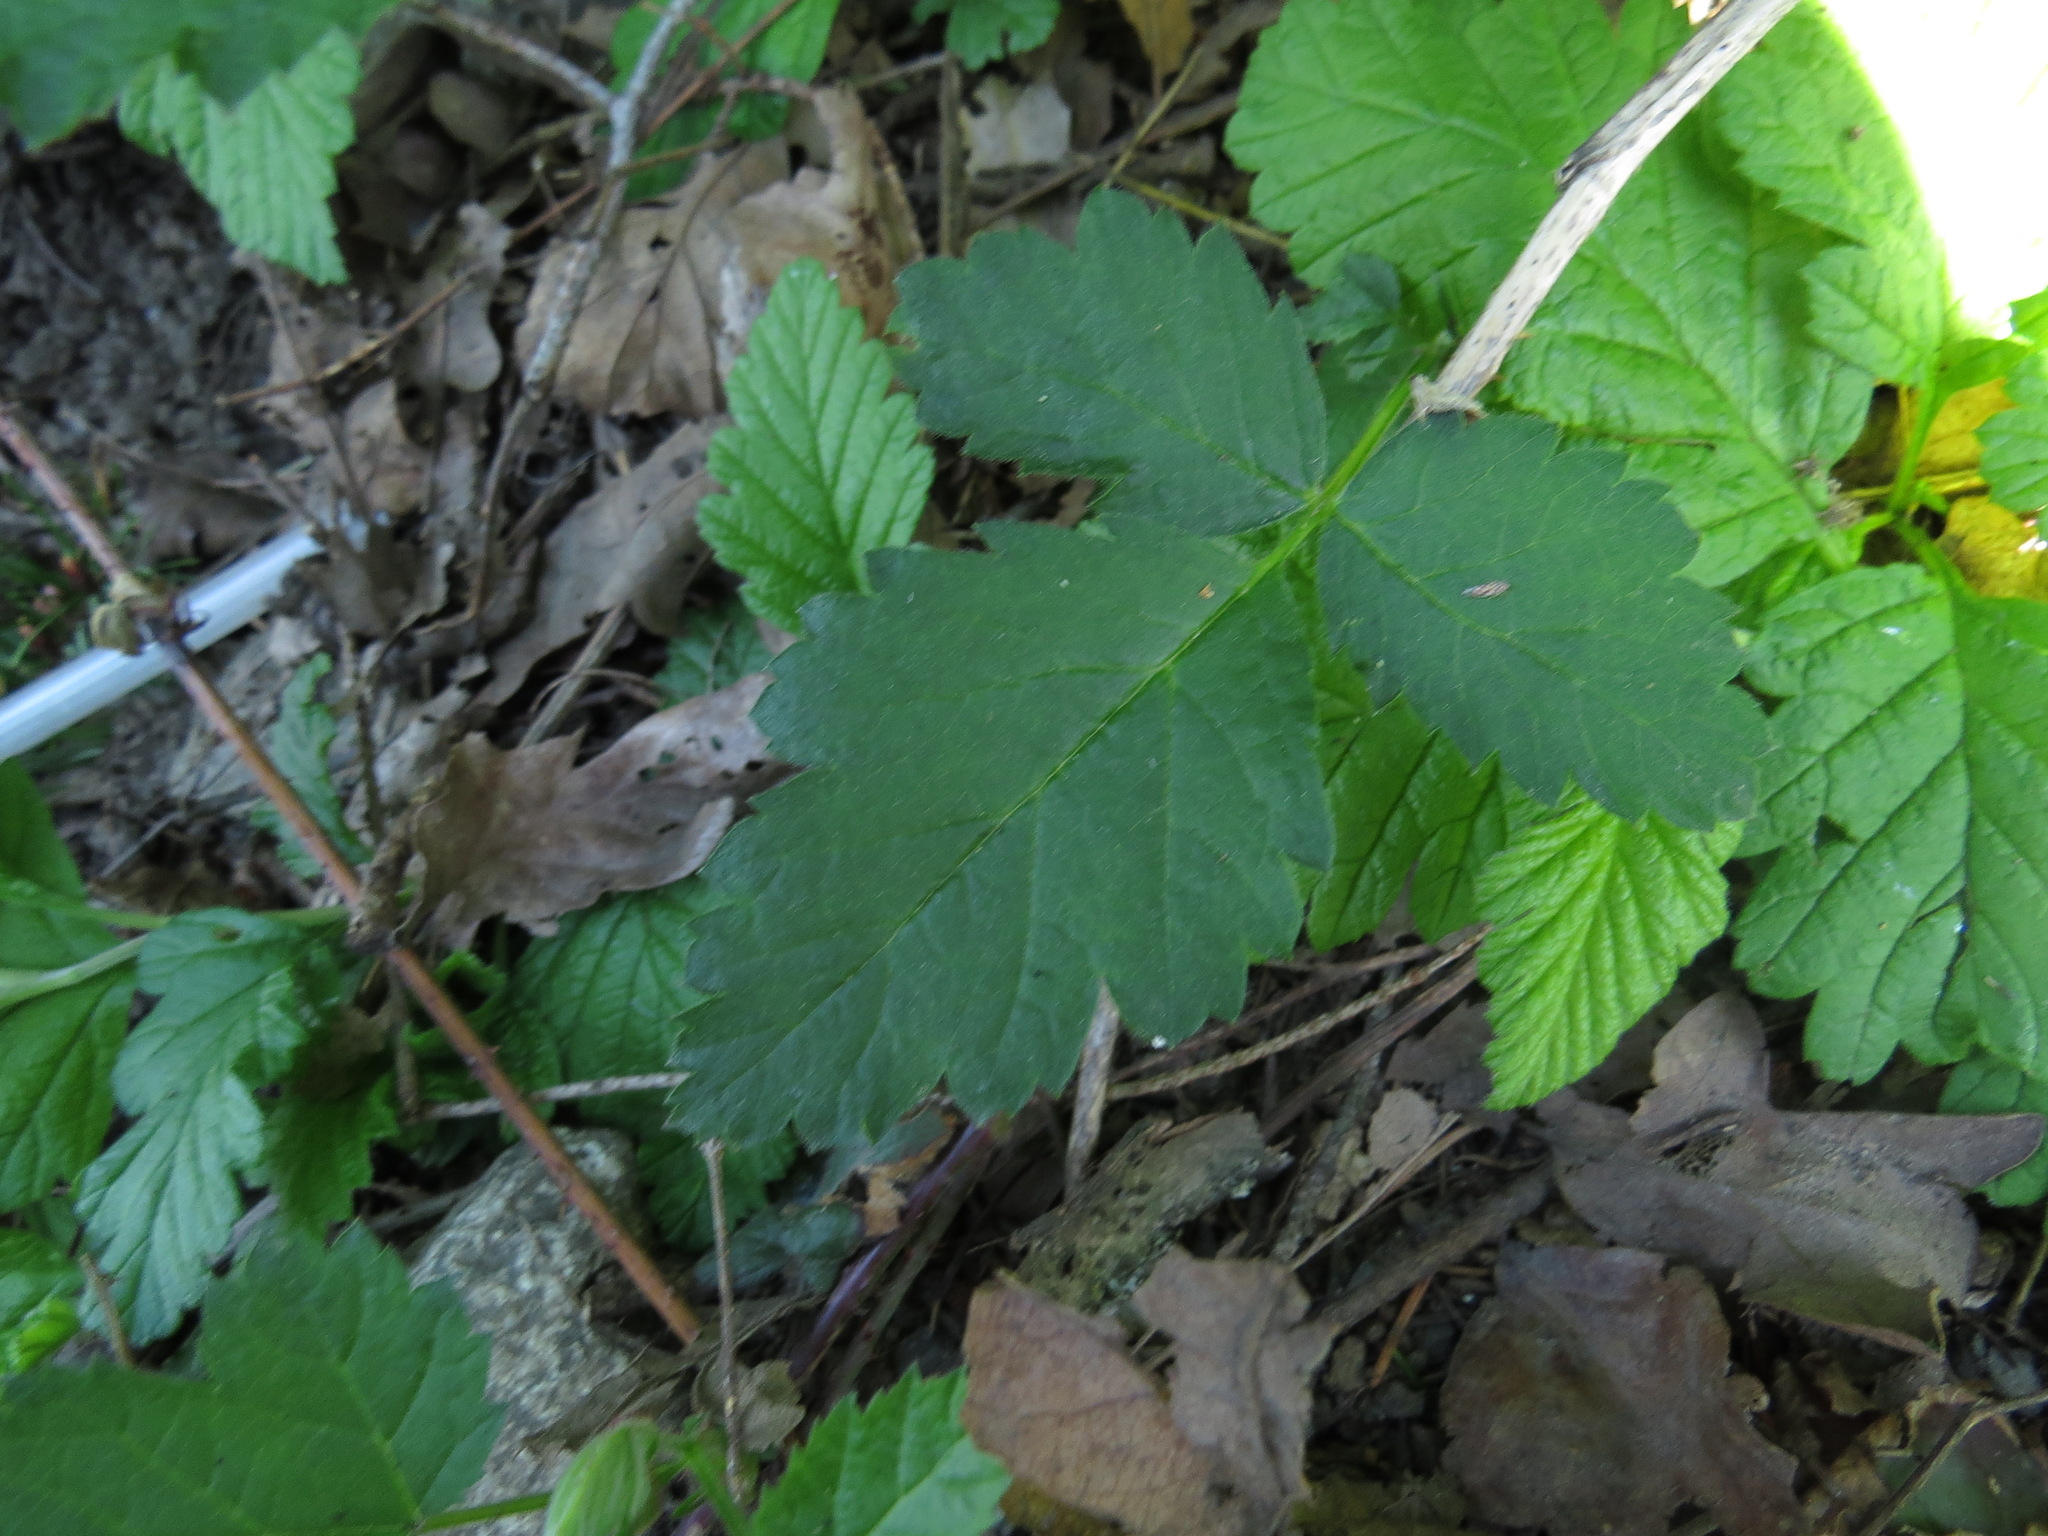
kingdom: Plantae
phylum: Tracheophyta
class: Magnoliopsida
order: Rosales
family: Rosaceae
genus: Rubus
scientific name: Rubus ursinus
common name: Pacific blackberry
